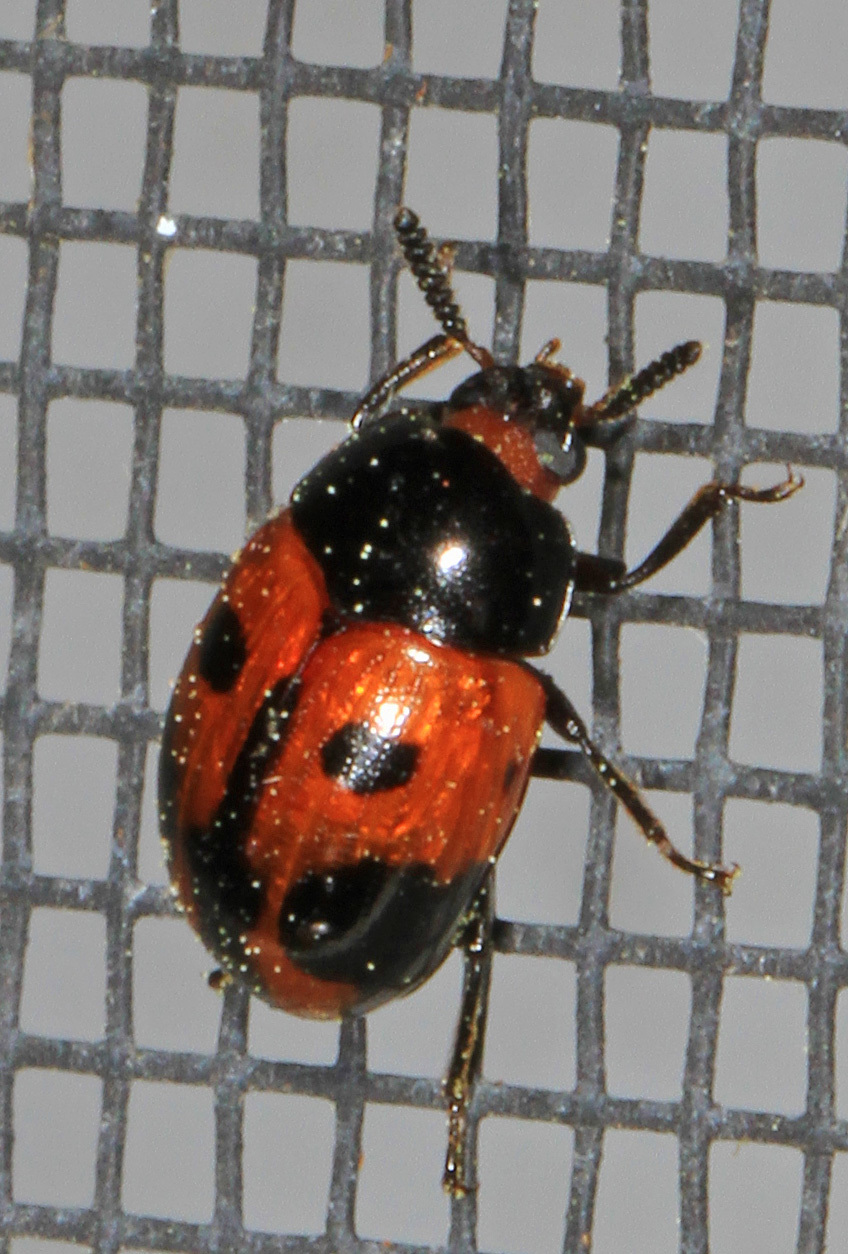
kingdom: Animalia
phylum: Arthropoda
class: Insecta
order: Coleoptera
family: Tenebrionidae
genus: Diaperis
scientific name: Diaperis maculata
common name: Darkling beetle
